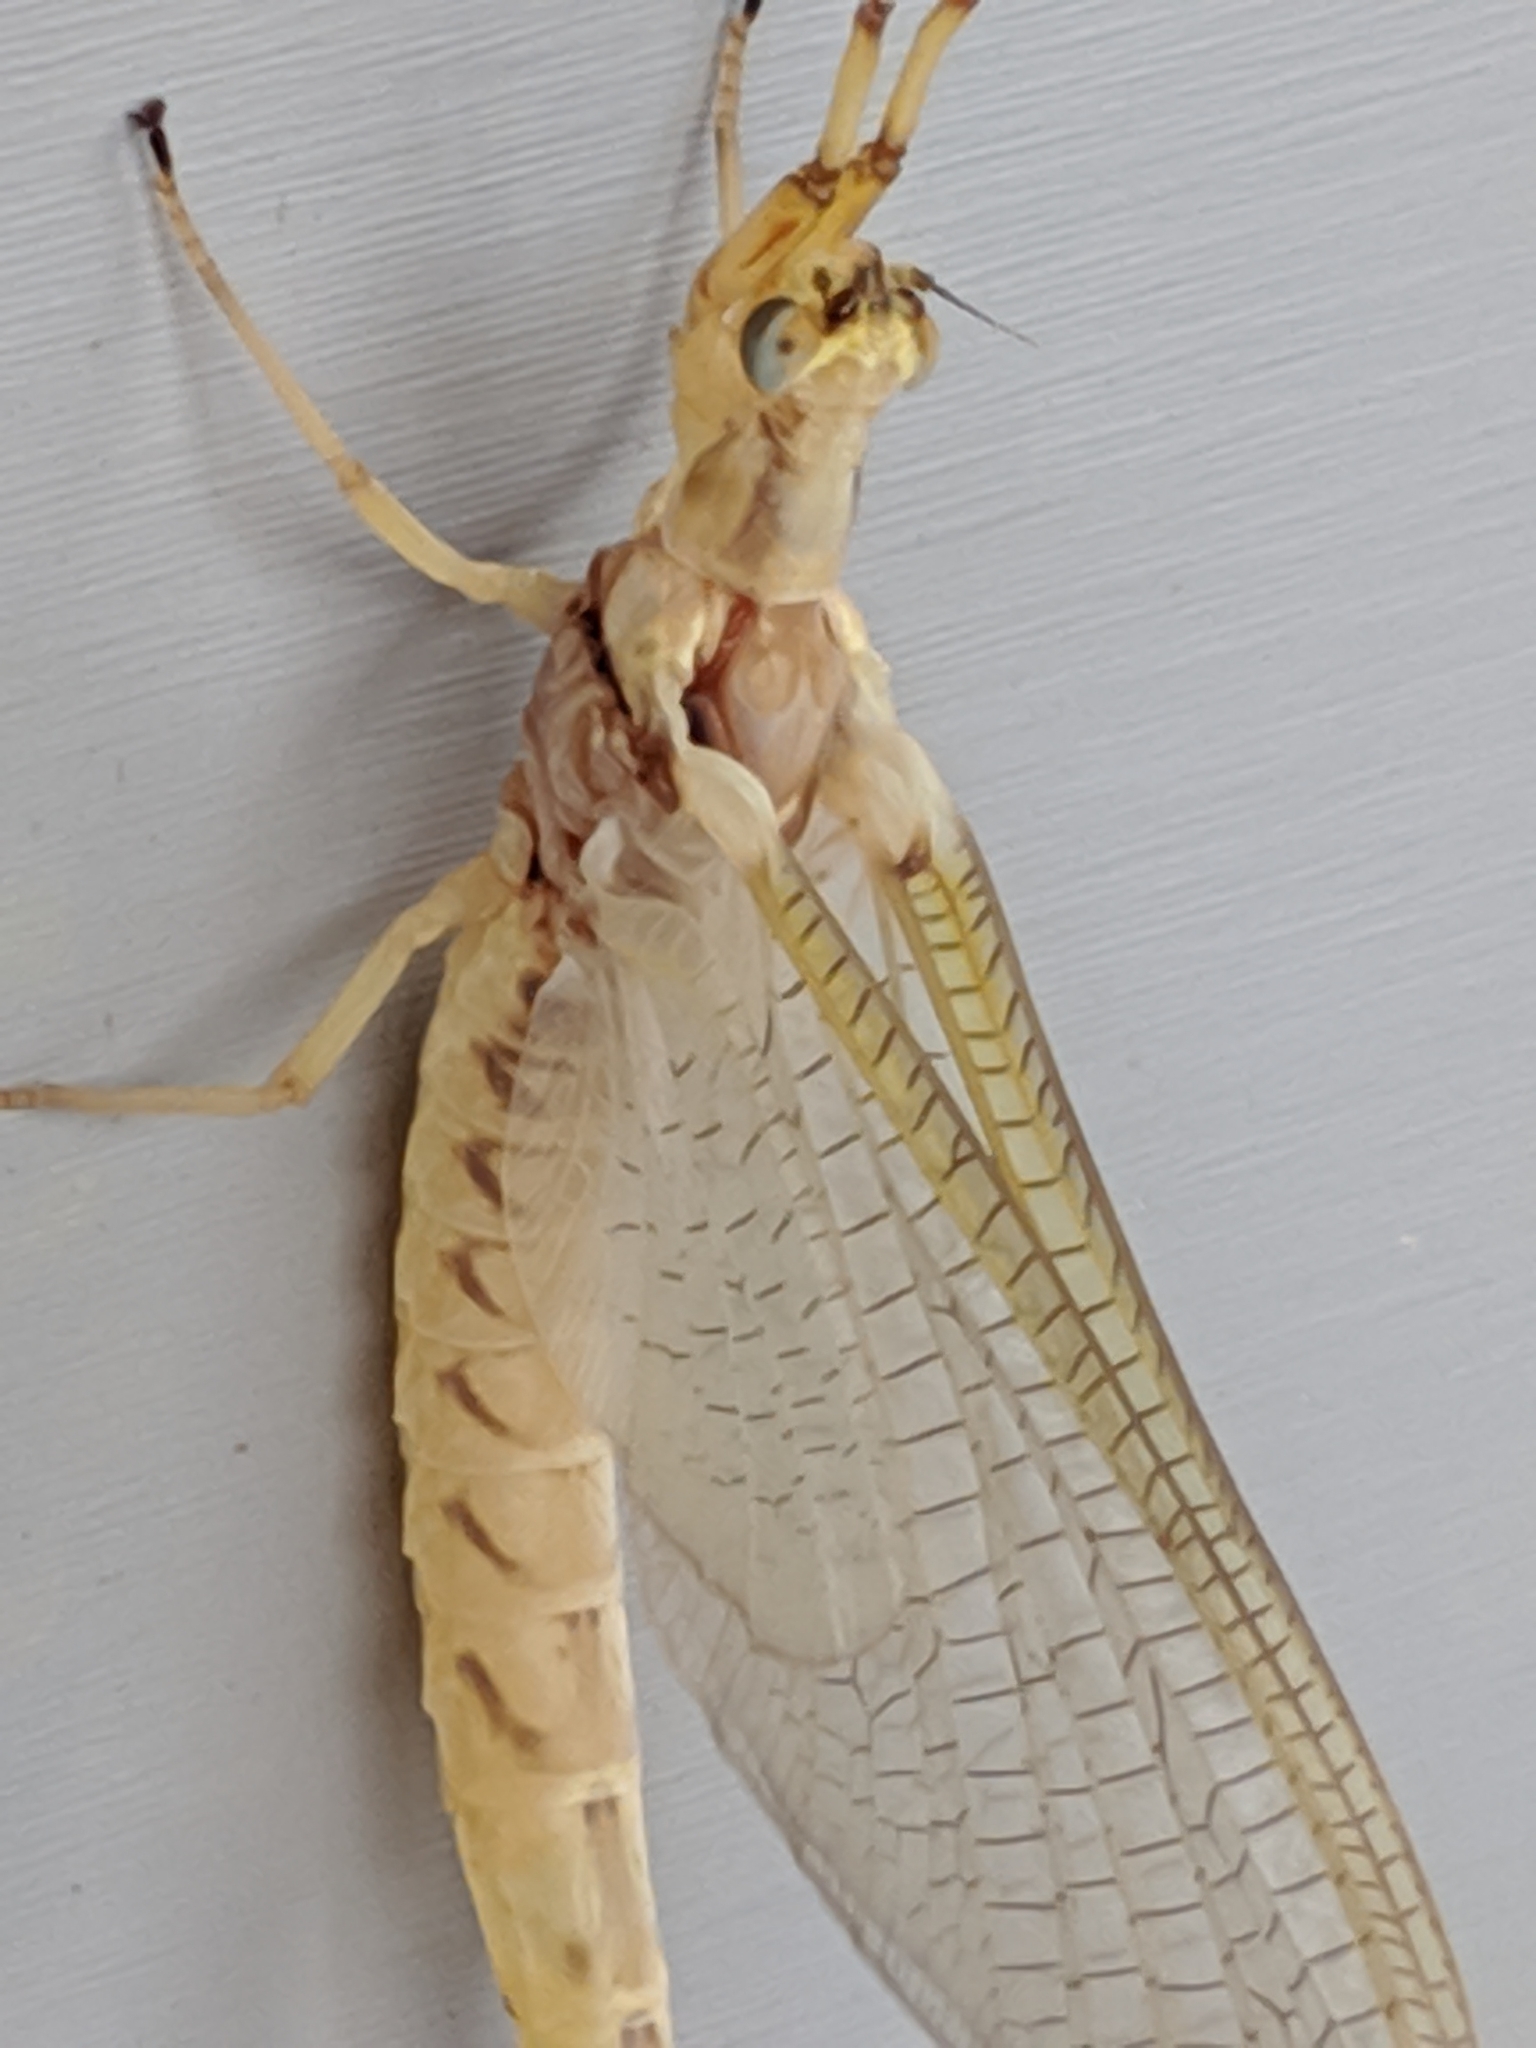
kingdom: Animalia
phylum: Arthropoda
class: Insecta
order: Ephemeroptera
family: Ephemeridae
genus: Hexagenia
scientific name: Hexagenia limbata
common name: Giant mayfly
